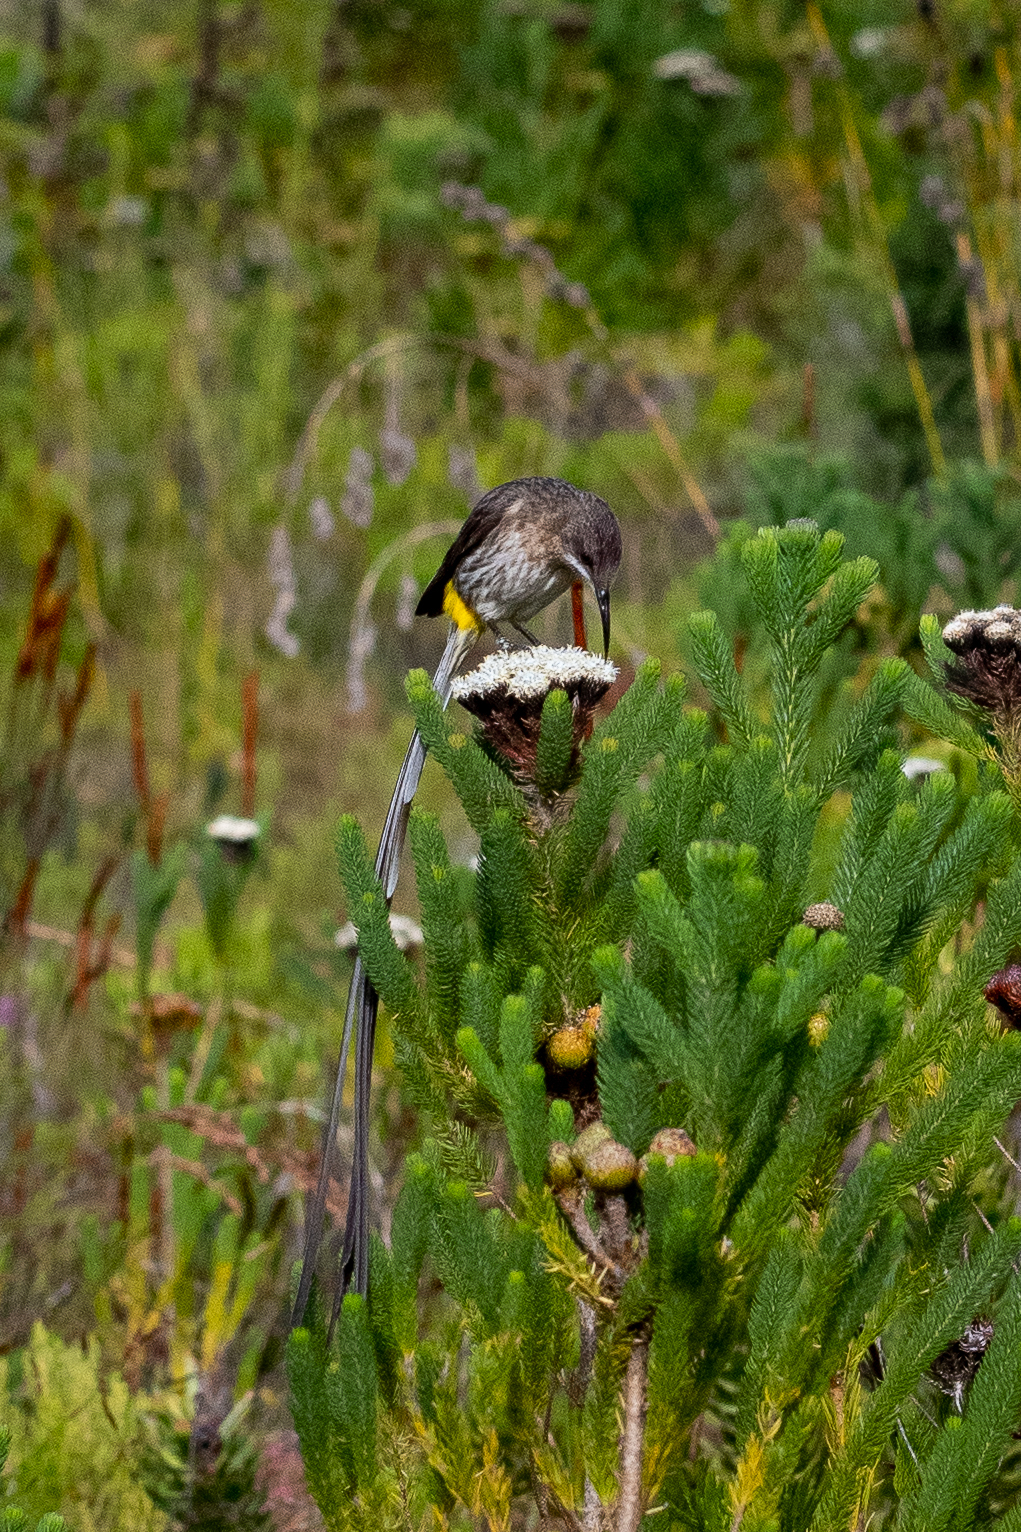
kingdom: Animalia
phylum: Chordata
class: Aves
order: Passeriformes
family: Promeropidae
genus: Promerops
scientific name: Promerops cafer
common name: Cape sugarbird
